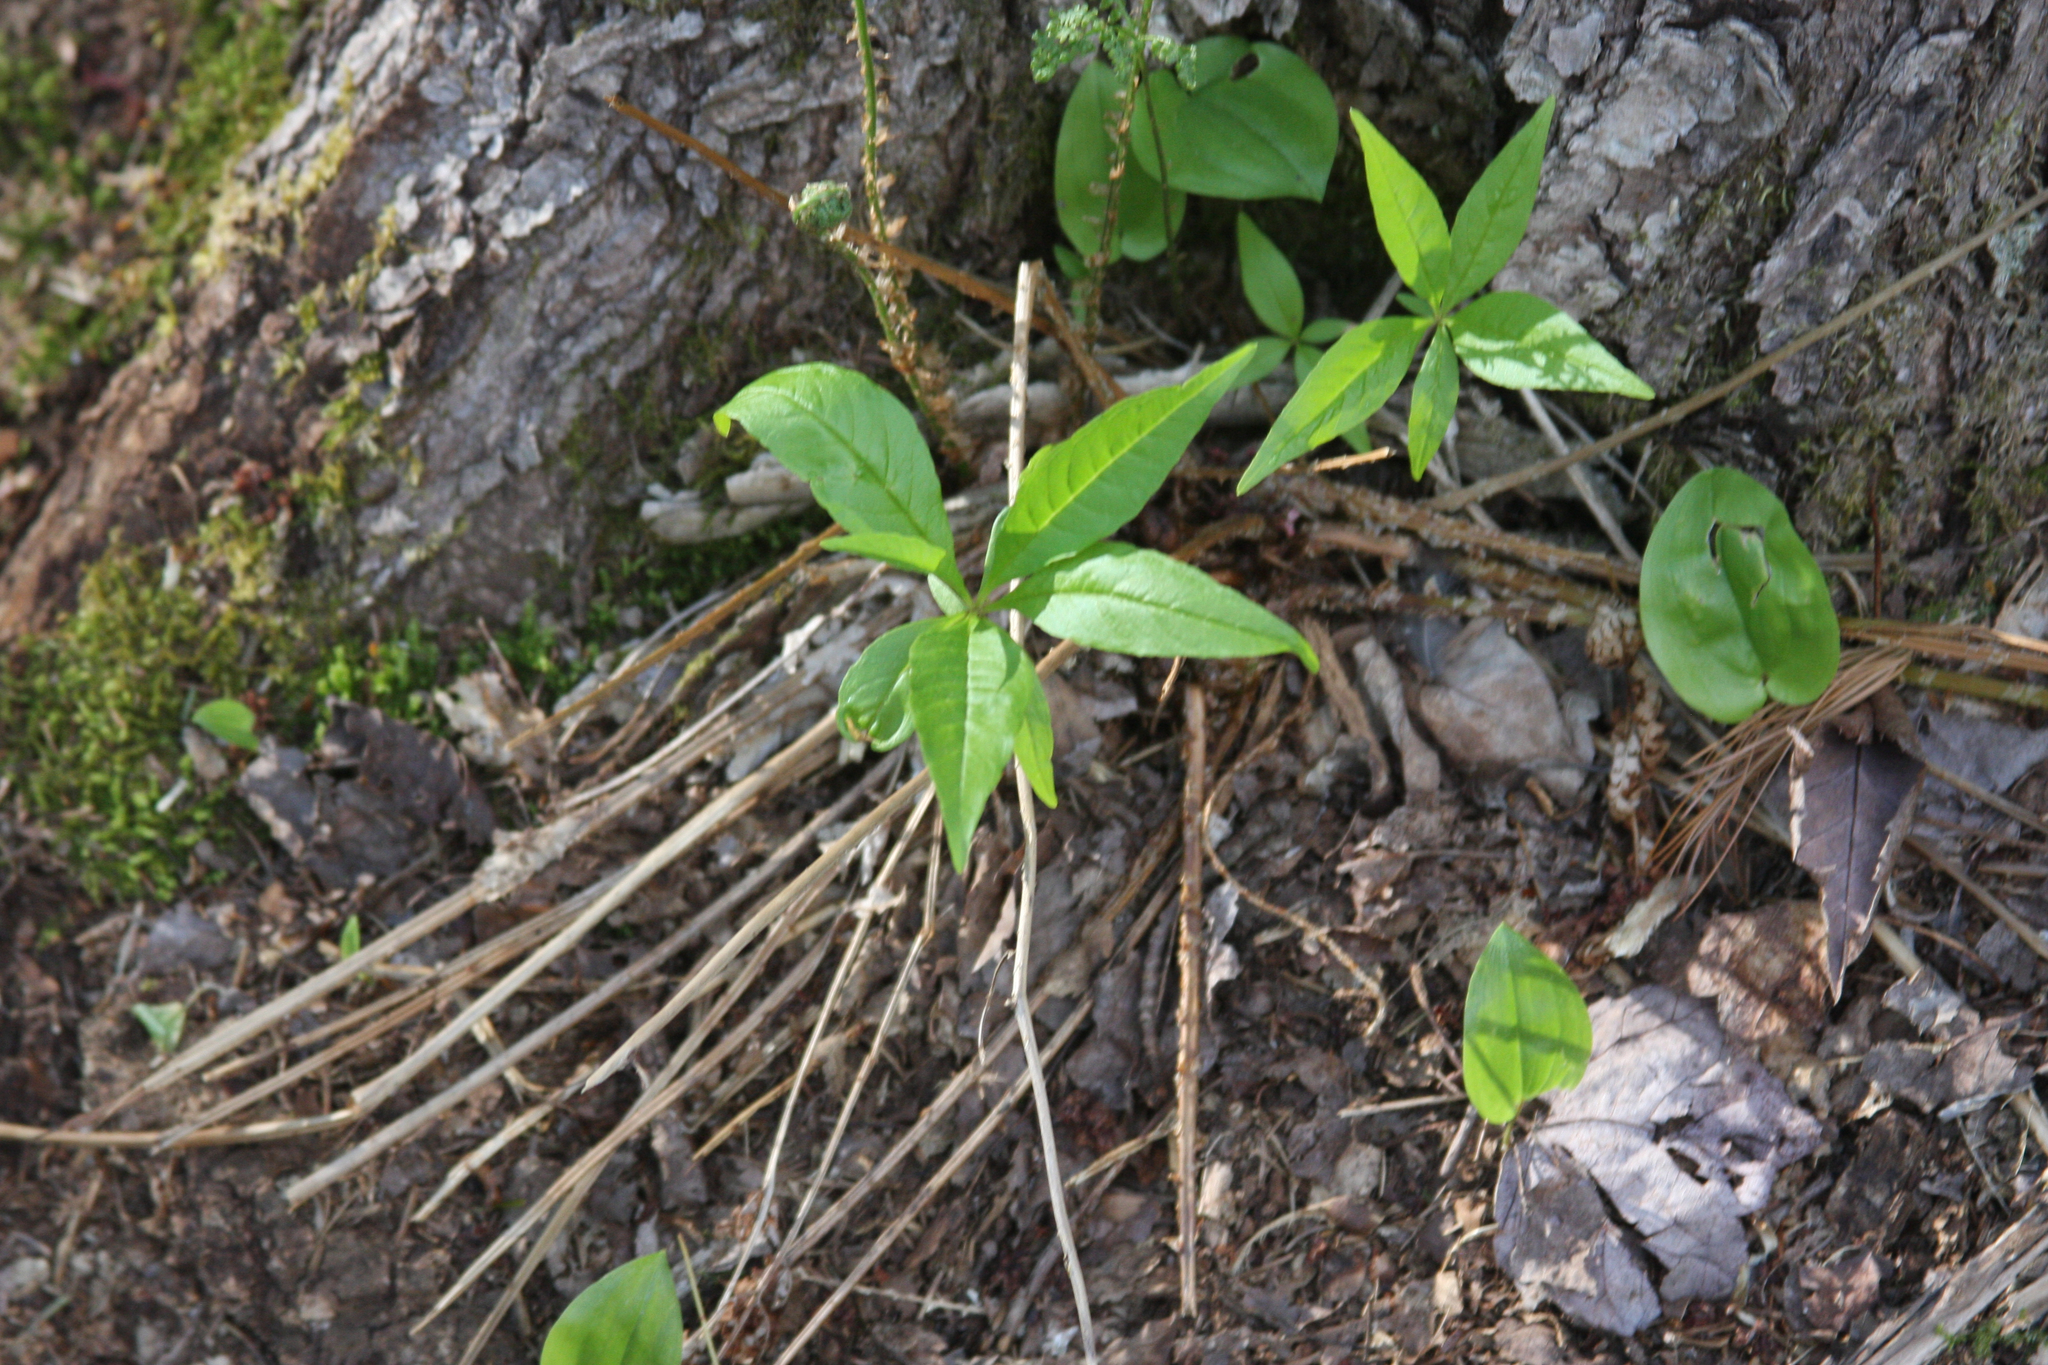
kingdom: Plantae
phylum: Tracheophyta
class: Liliopsida
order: Asparagales
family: Asparagaceae
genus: Maianthemum
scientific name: Maianthemum canadense
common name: False lily-of-the-valley
